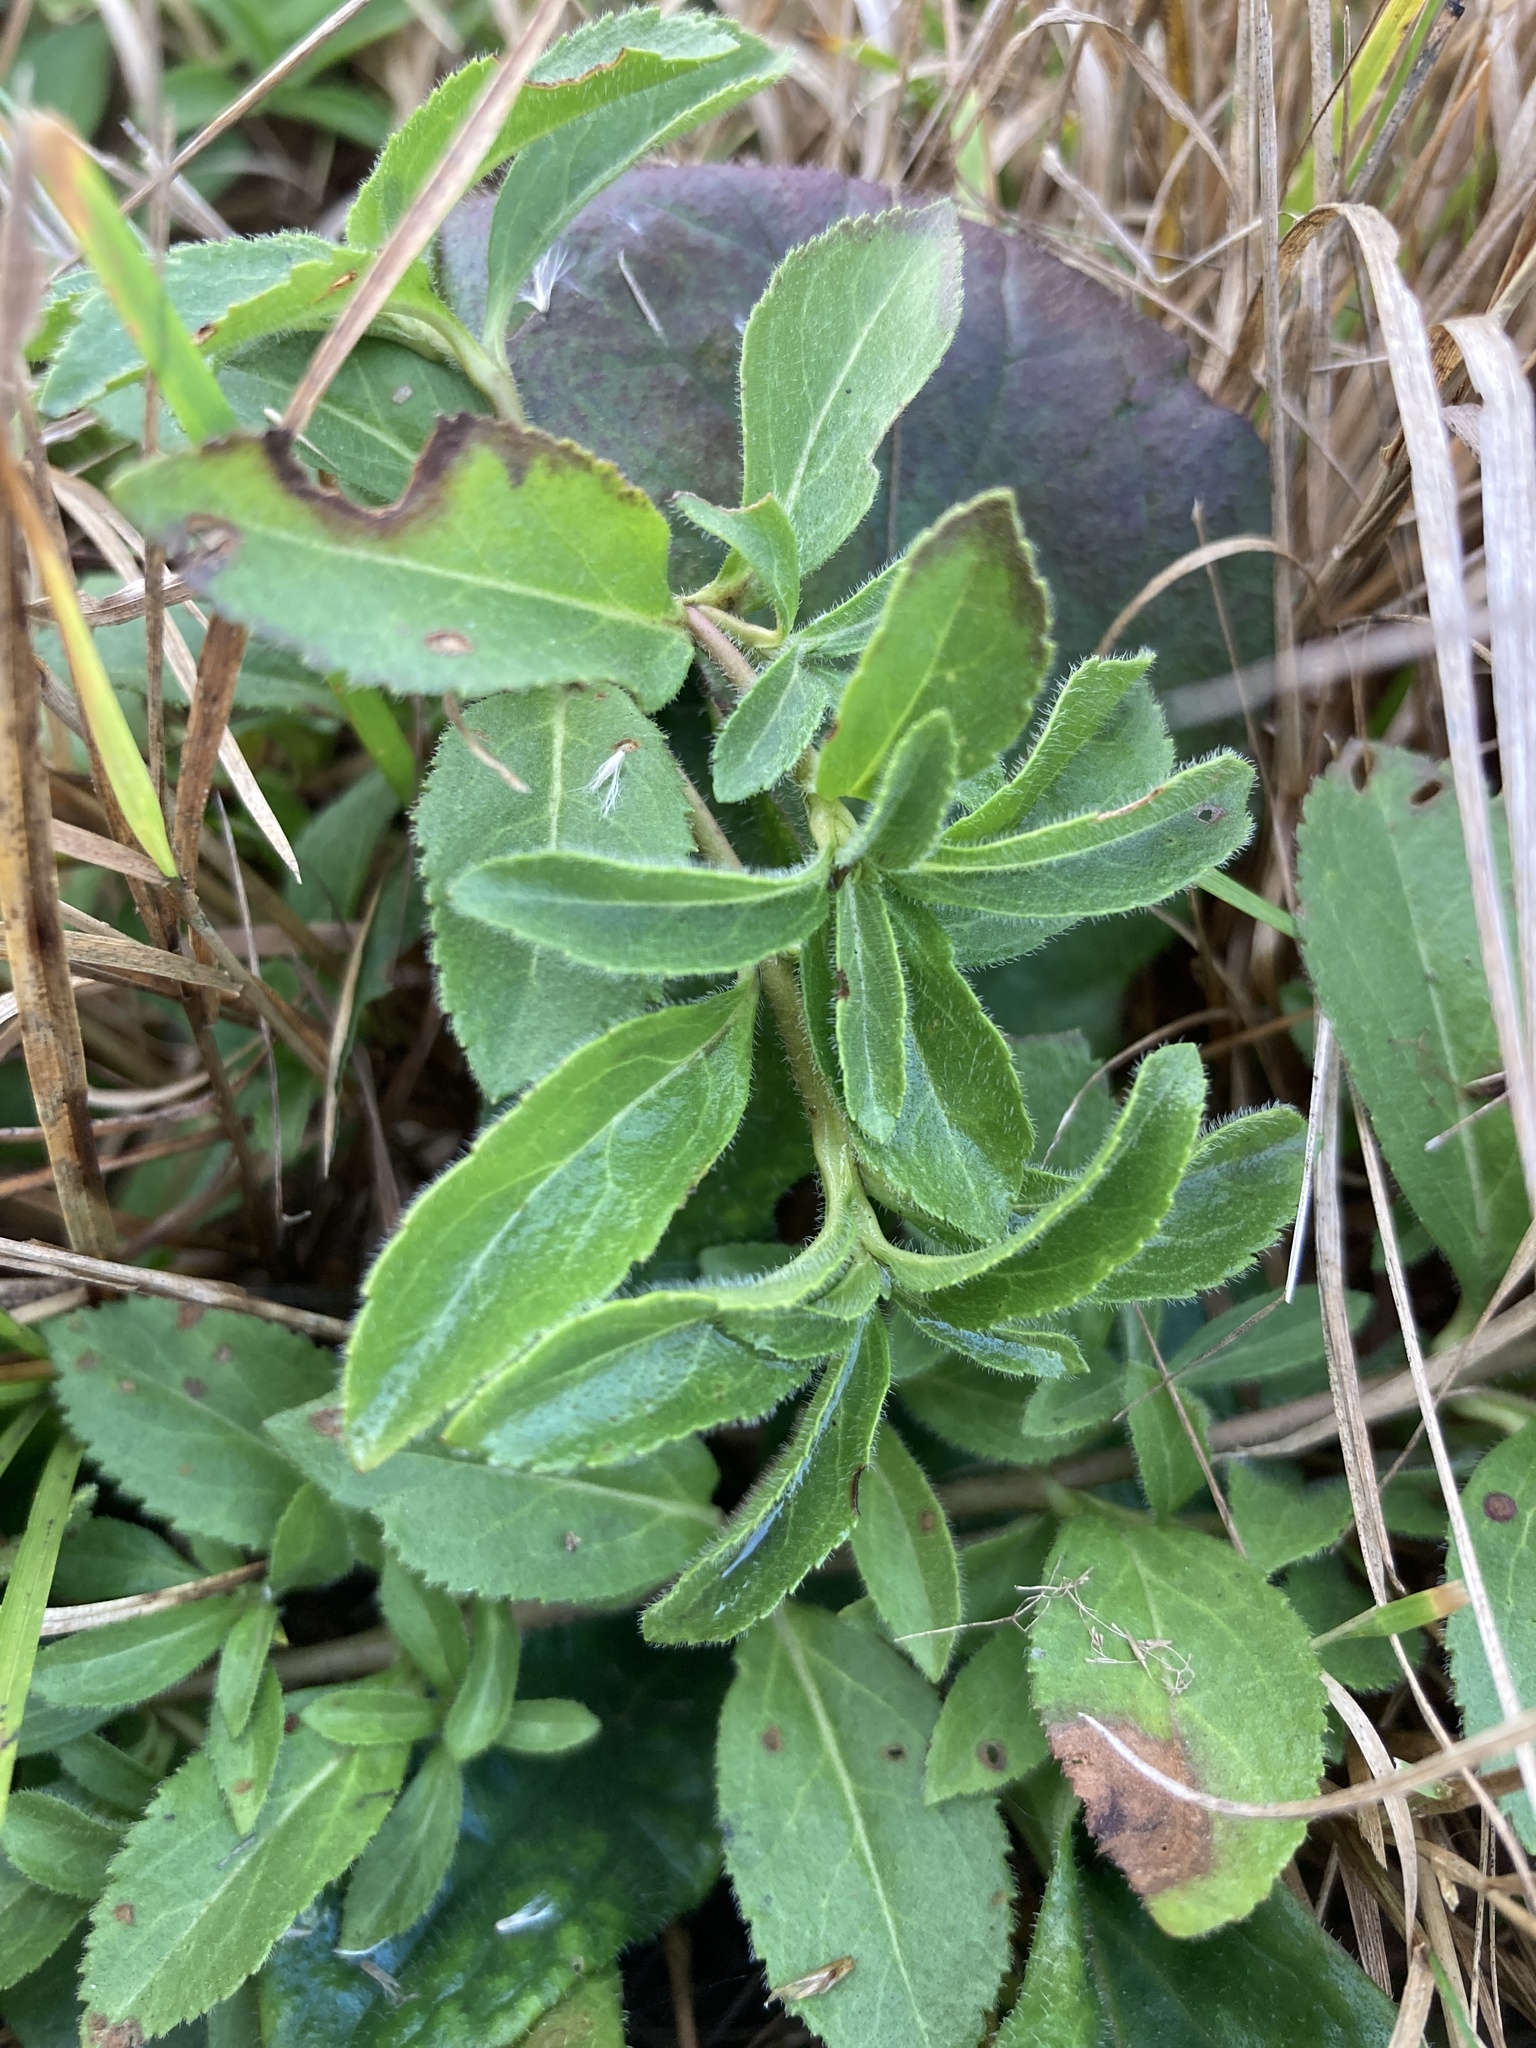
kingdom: Plantae
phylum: Tracheophyta
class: Magnoliopsida
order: Lamiales
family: Plantaginaceae
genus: Veronica
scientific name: Veronica officinalis
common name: Common speedwell
